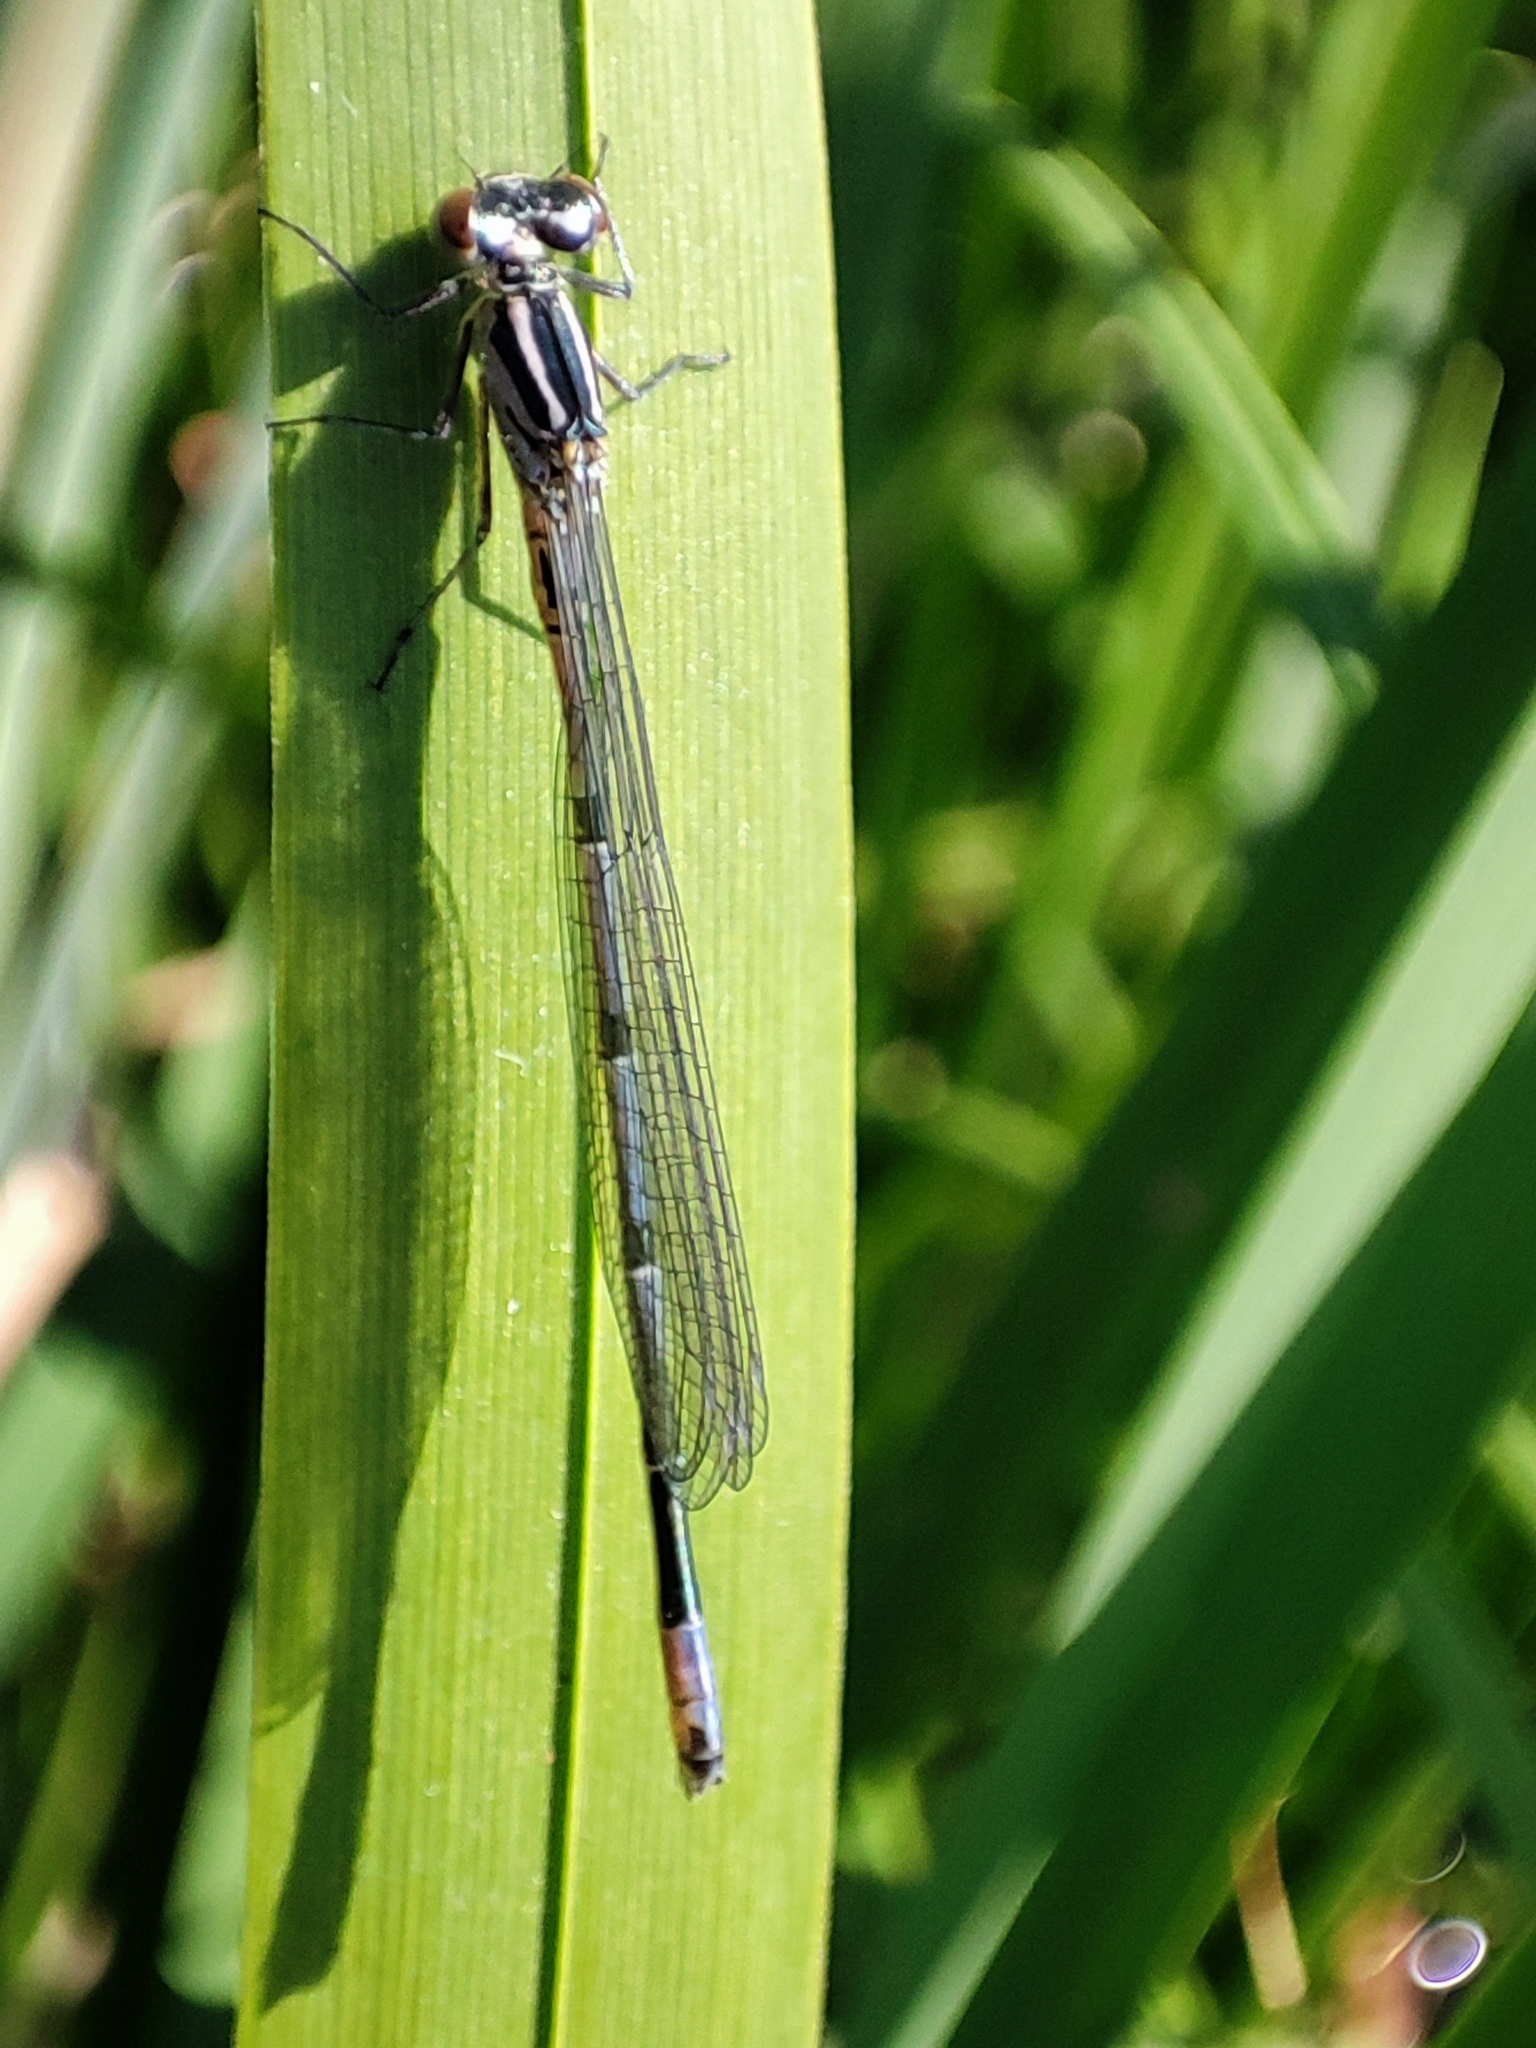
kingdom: Animalia
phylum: Arthropoda
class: Insecta
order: Odonata
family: Coenagrionidae
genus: Coenagrion
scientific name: Coenagrion puella
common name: Azure damselfly
